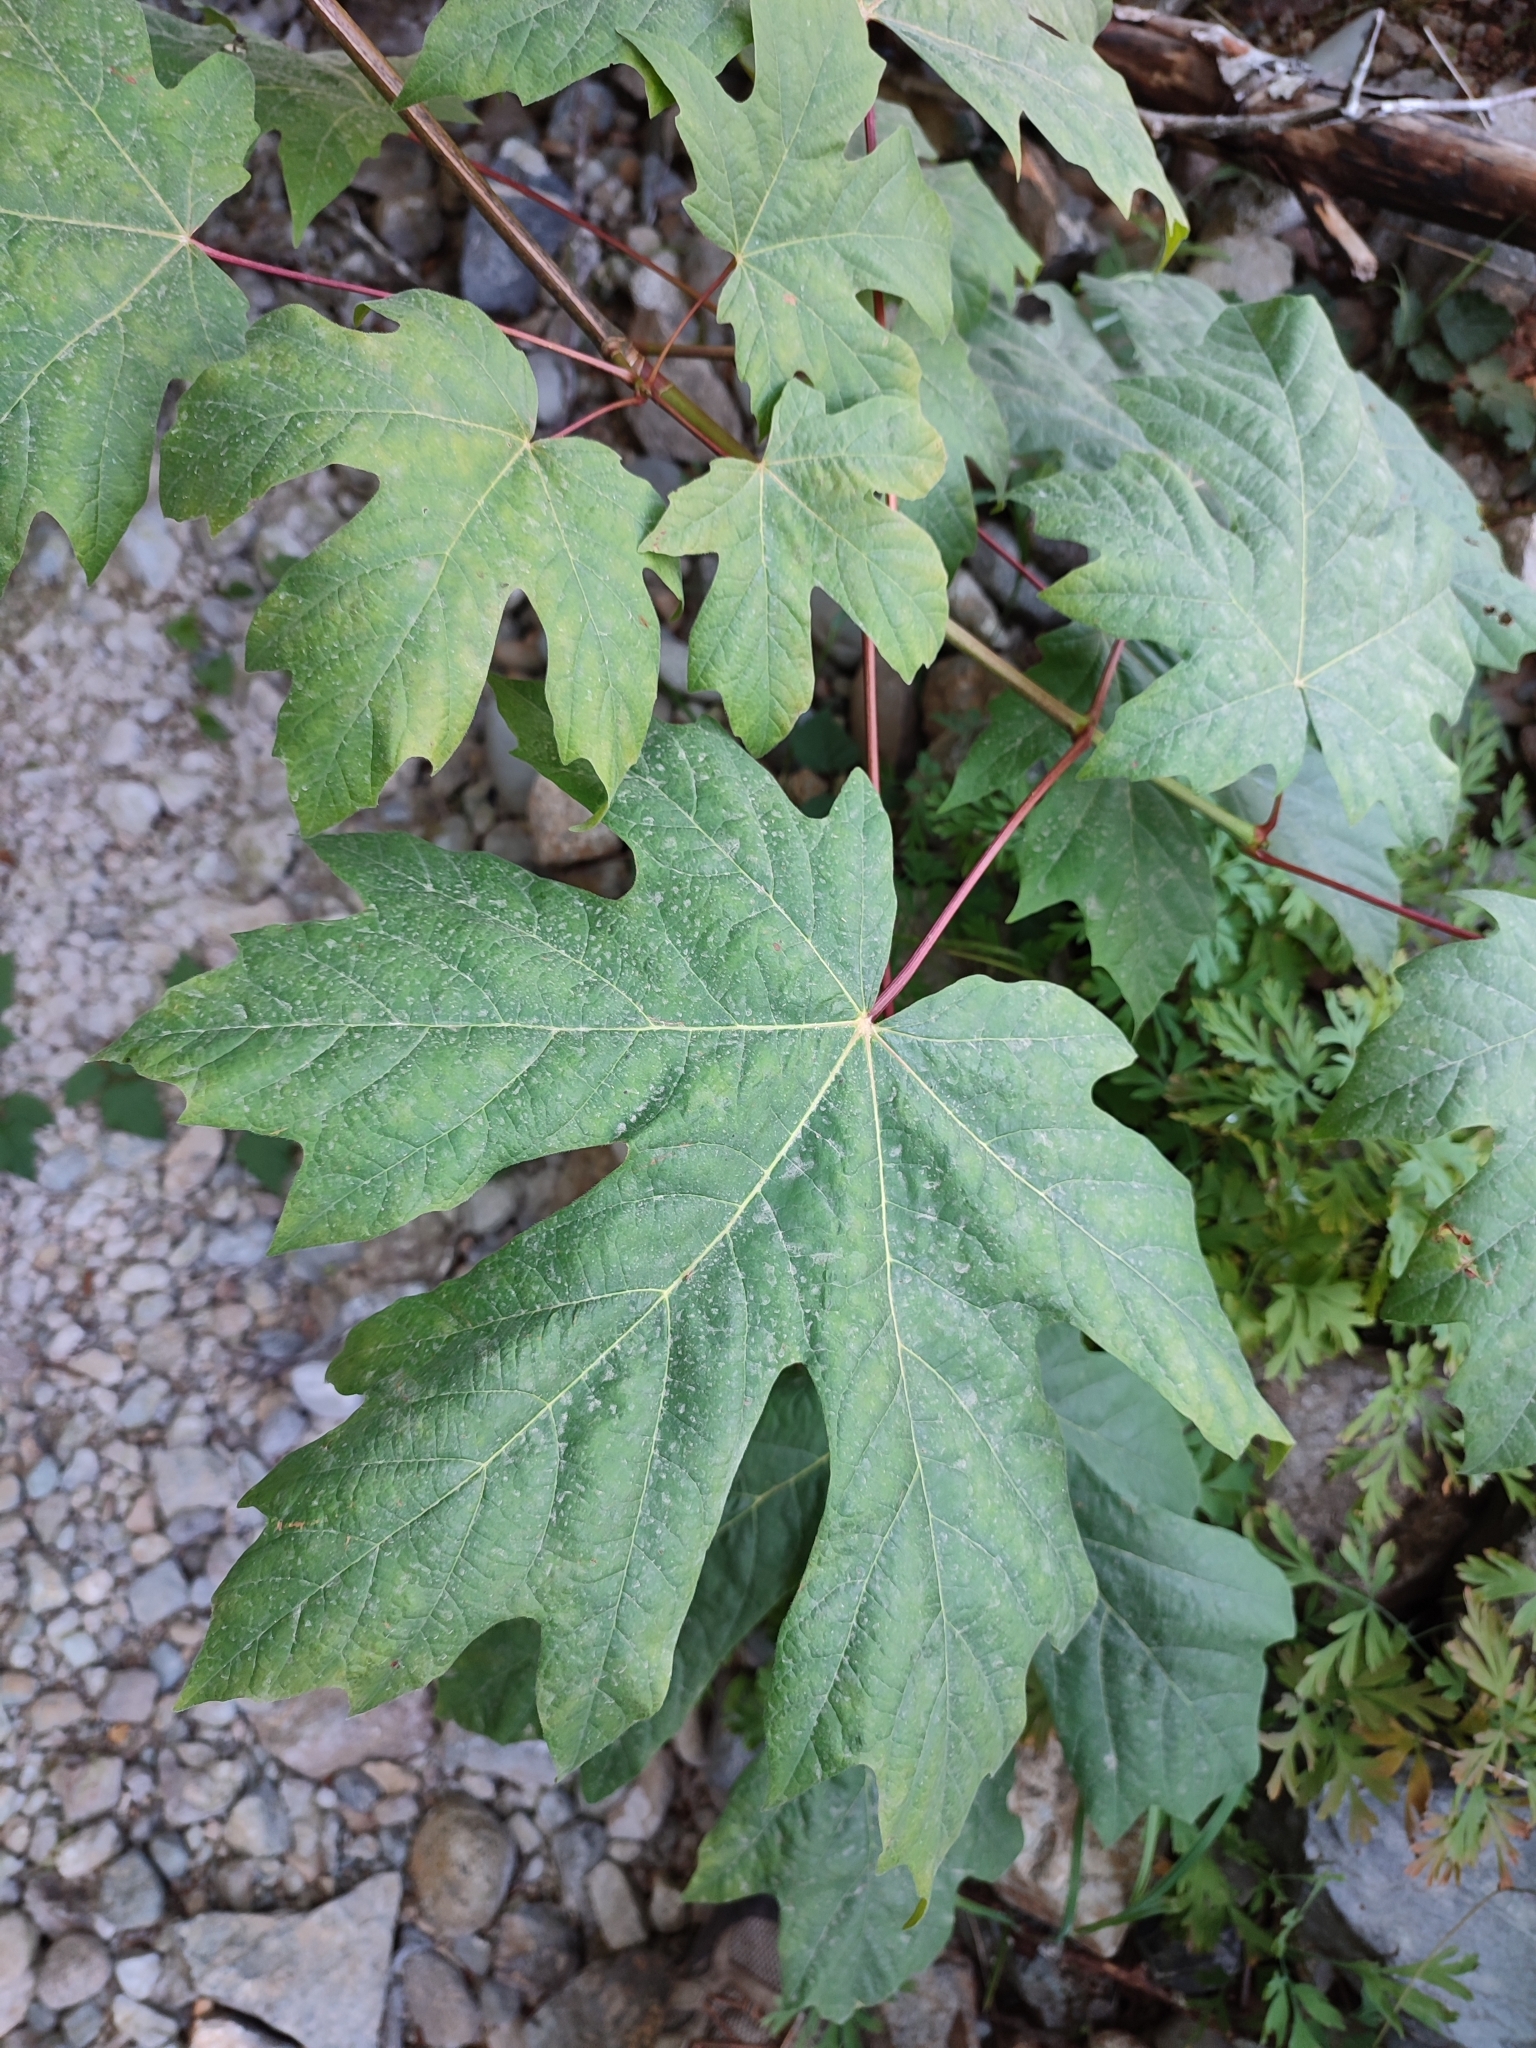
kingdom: Plantae
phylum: Tracheophyta
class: Magnoliopsida
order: Sapindales
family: Sapindaceae
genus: Acer
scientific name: Acer macrophyllum
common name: Oregon maple
